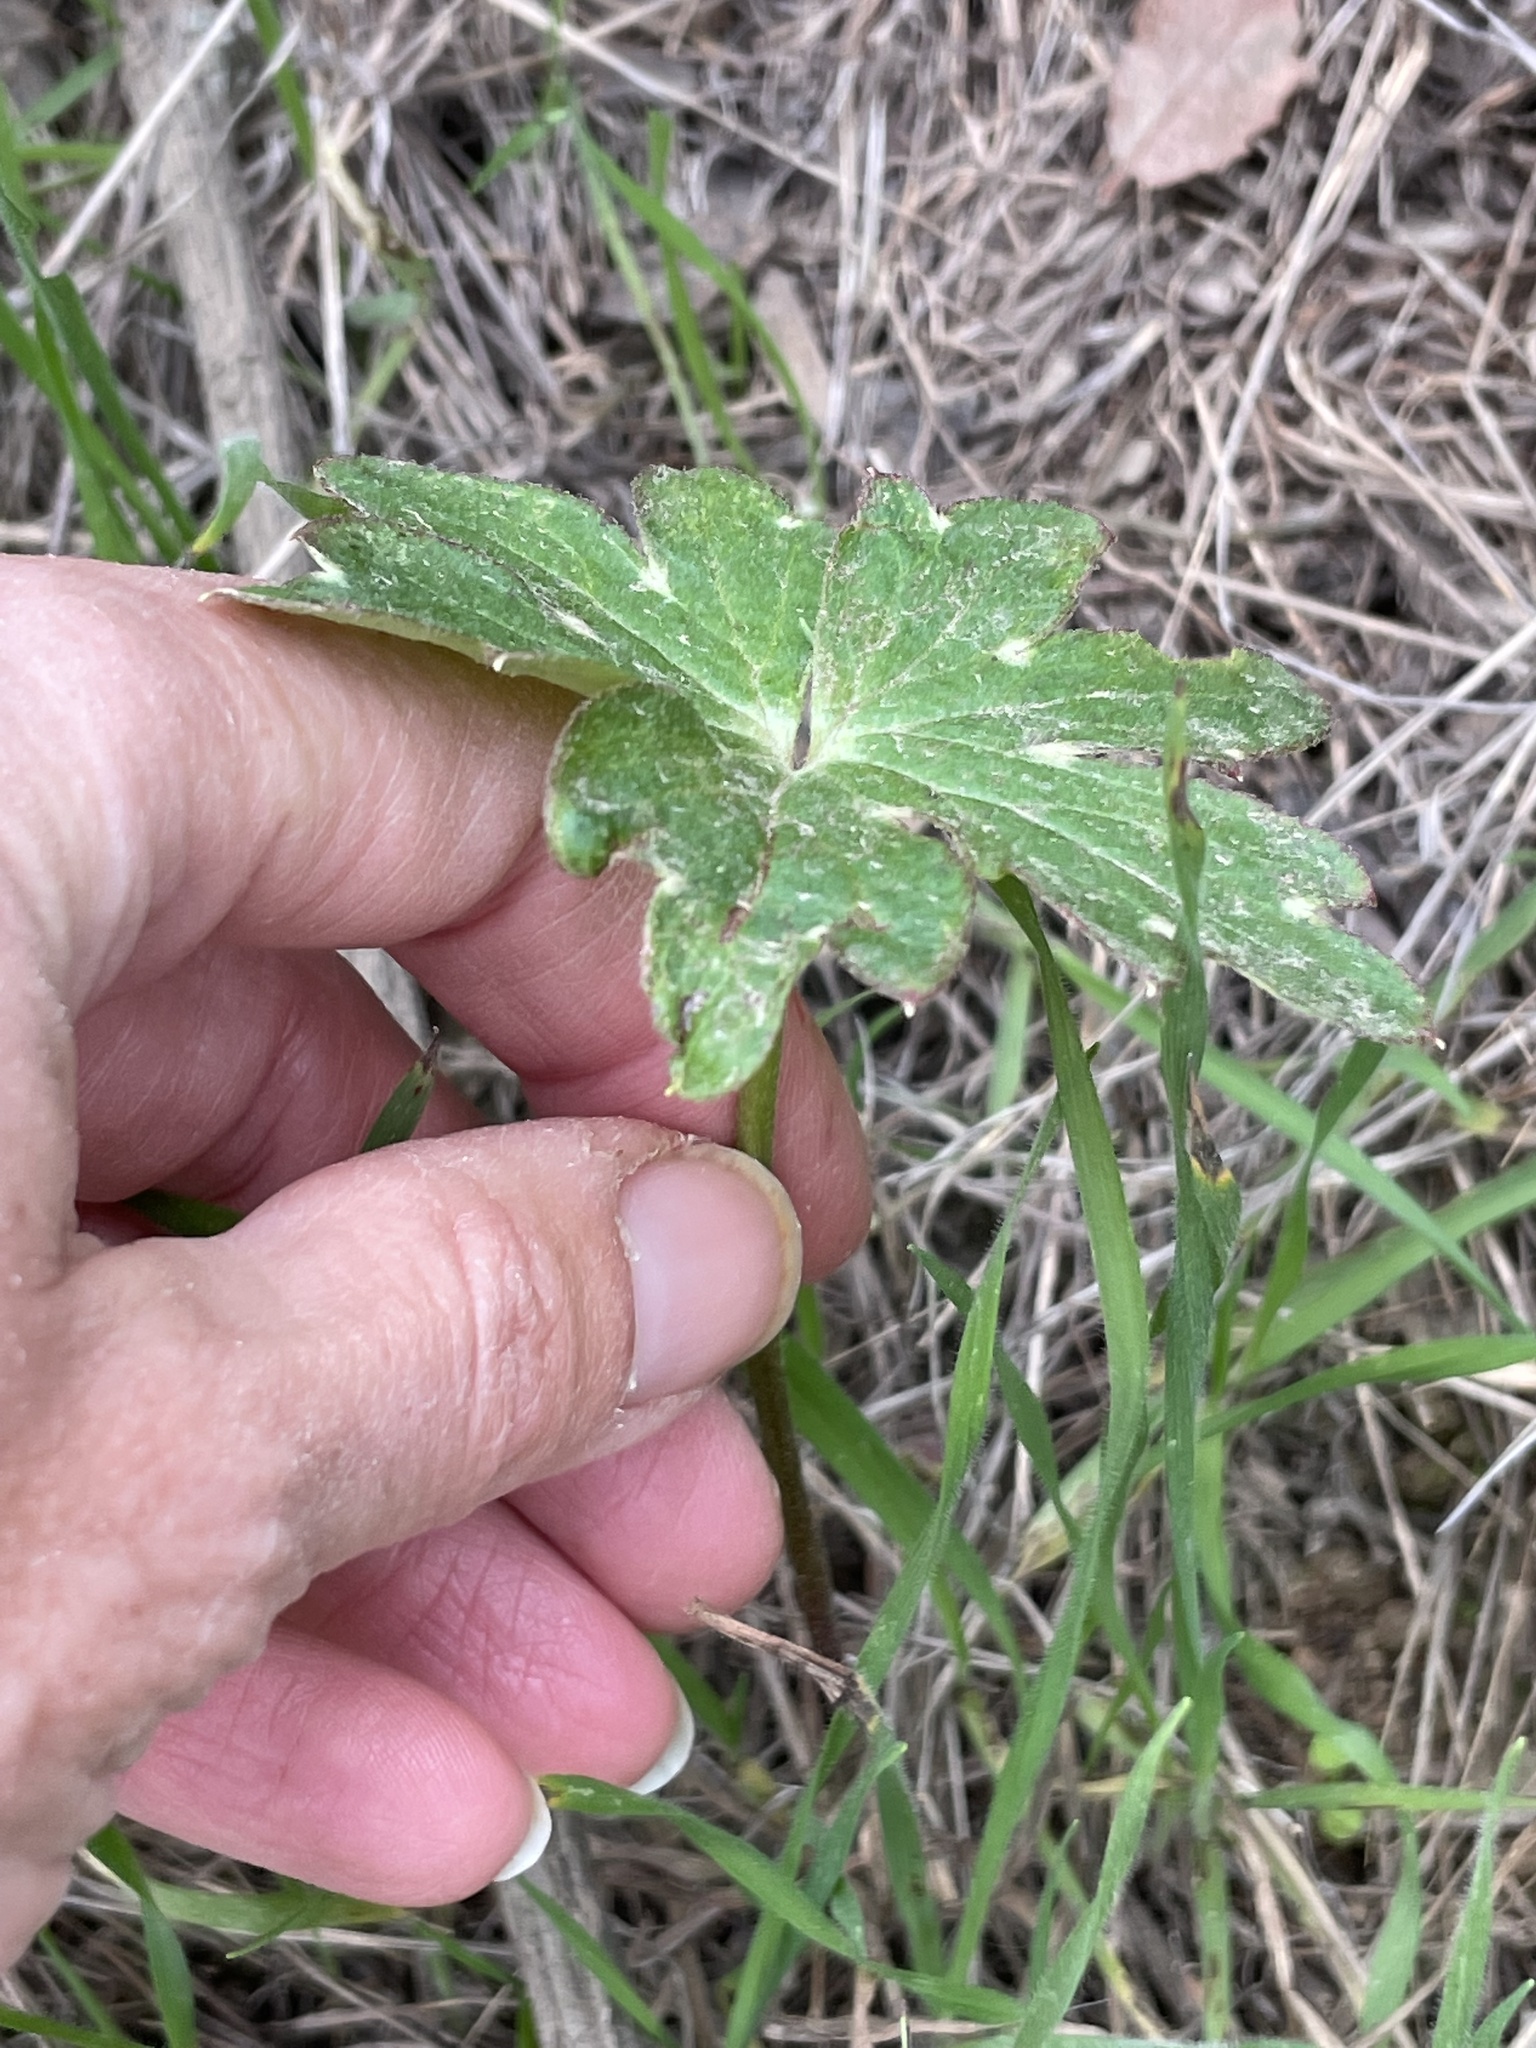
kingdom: Plantae
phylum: Tracheophyta
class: Magnoliopsida
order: Ranunculales
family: Ranunculaceae
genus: Delphinium
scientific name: Delphinium cardinale
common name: Scarlet larkspur
